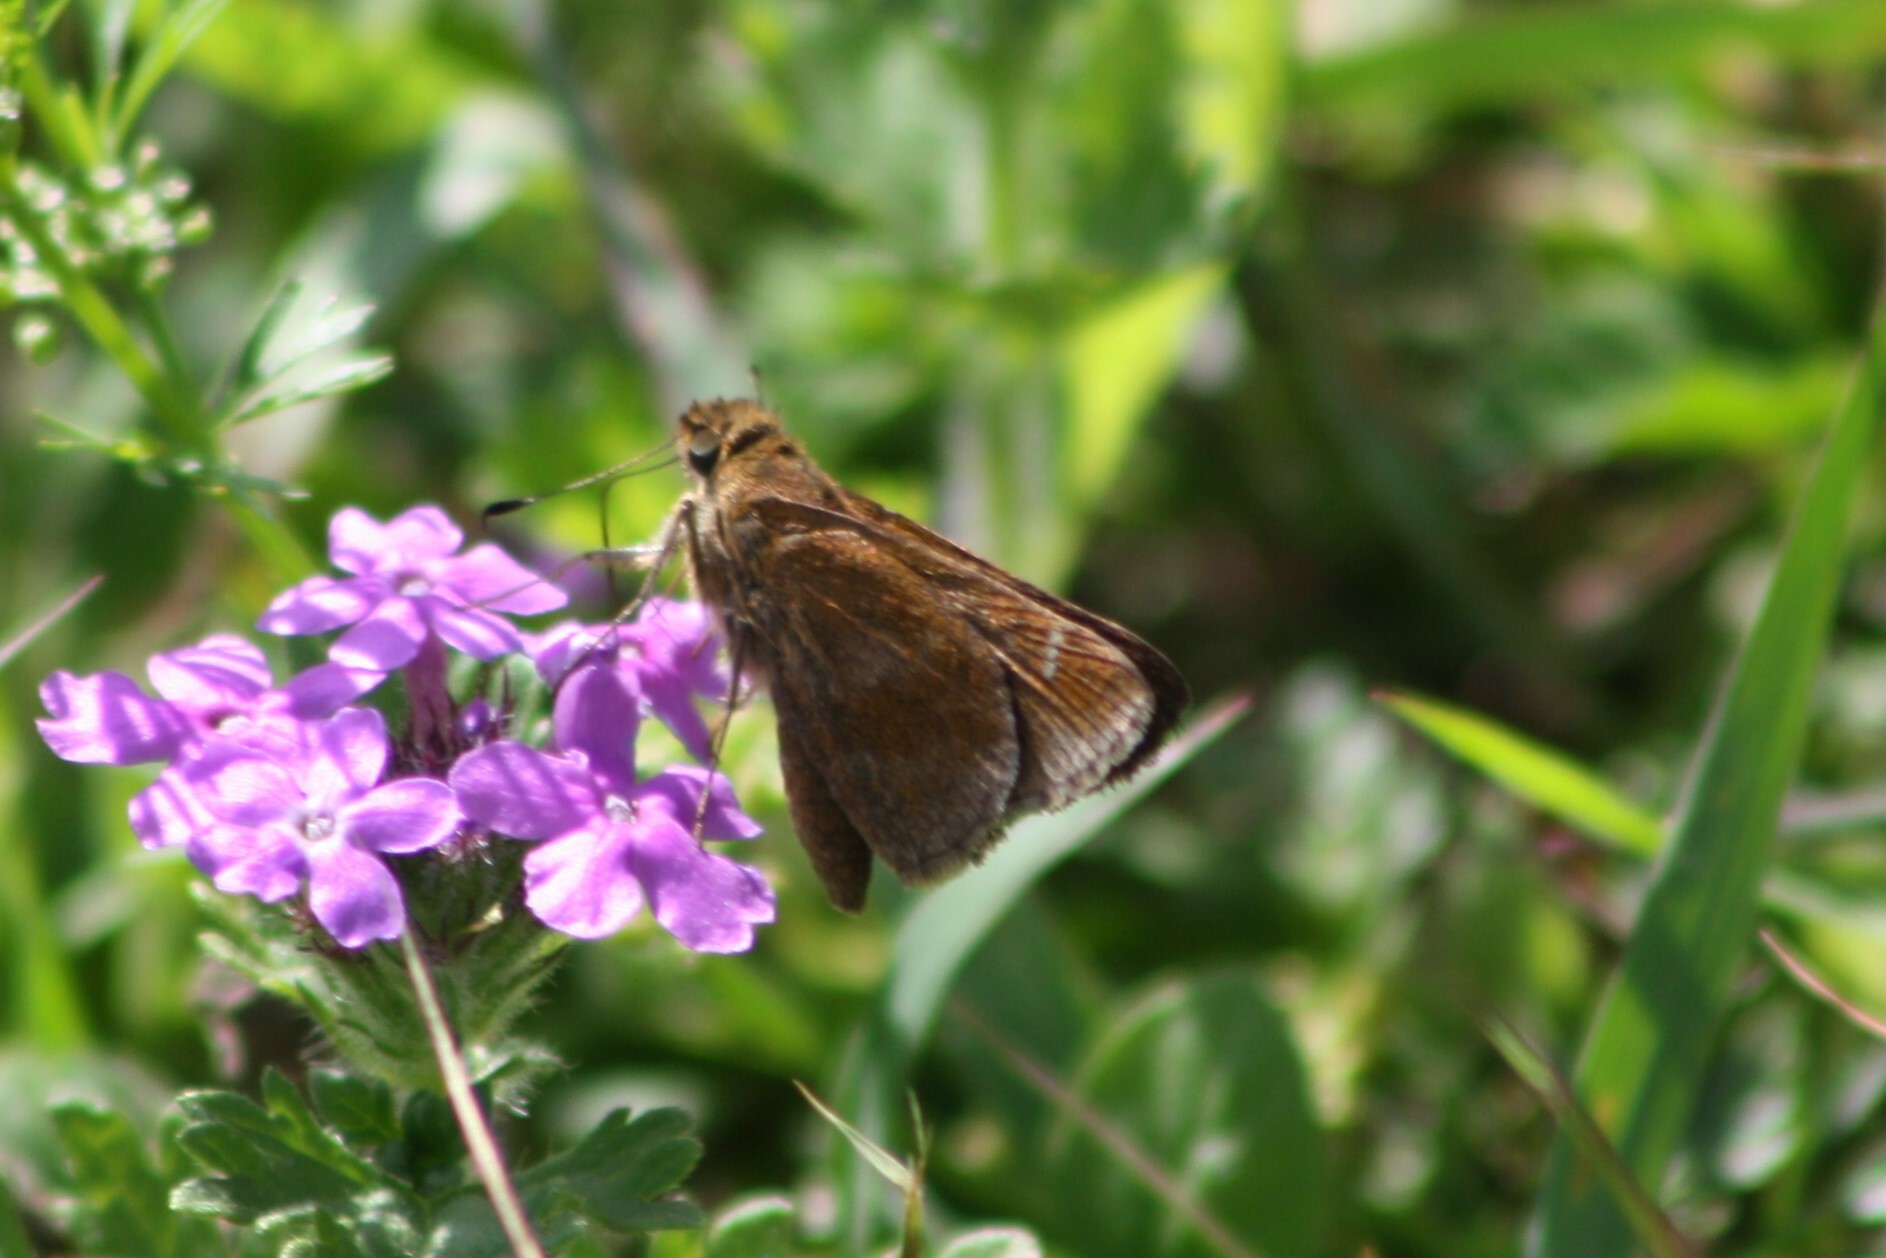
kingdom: Animalia
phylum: Arthropoda
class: Insecta
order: Lepidoptera
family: Hesperiidae
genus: Lerema
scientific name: Lerema accius
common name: Clouded skipper
